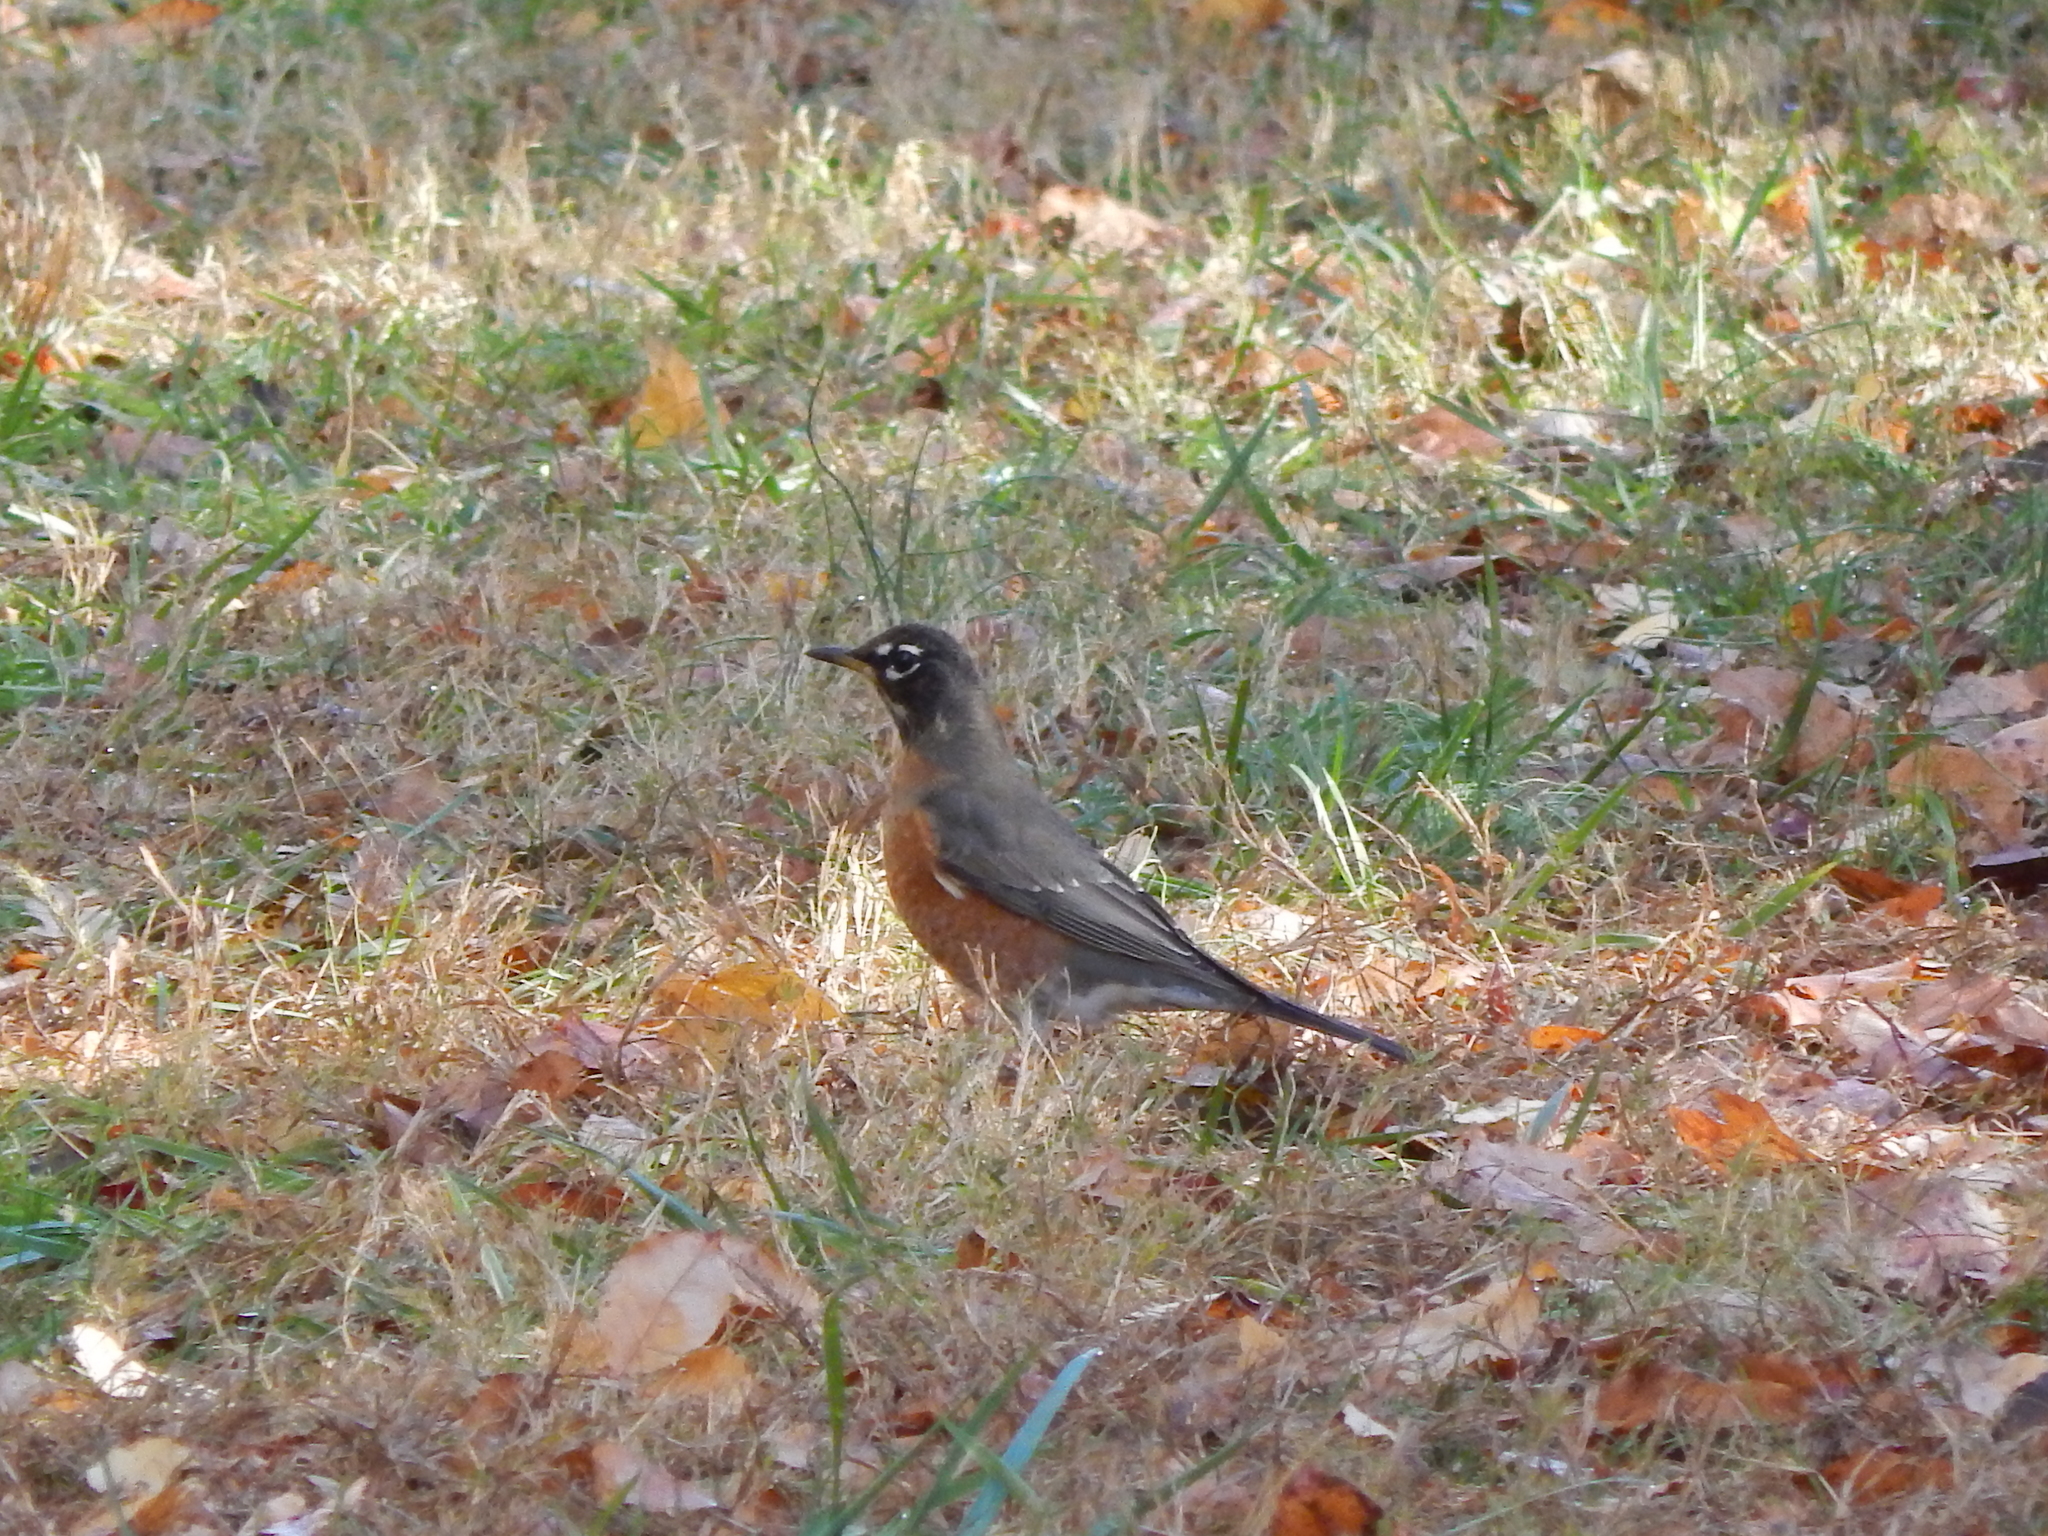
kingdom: Animalia
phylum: Chordata
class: Aves
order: Passeriformes
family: Turdidae
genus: Turdus
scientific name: Turdus migratorius
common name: American robin
